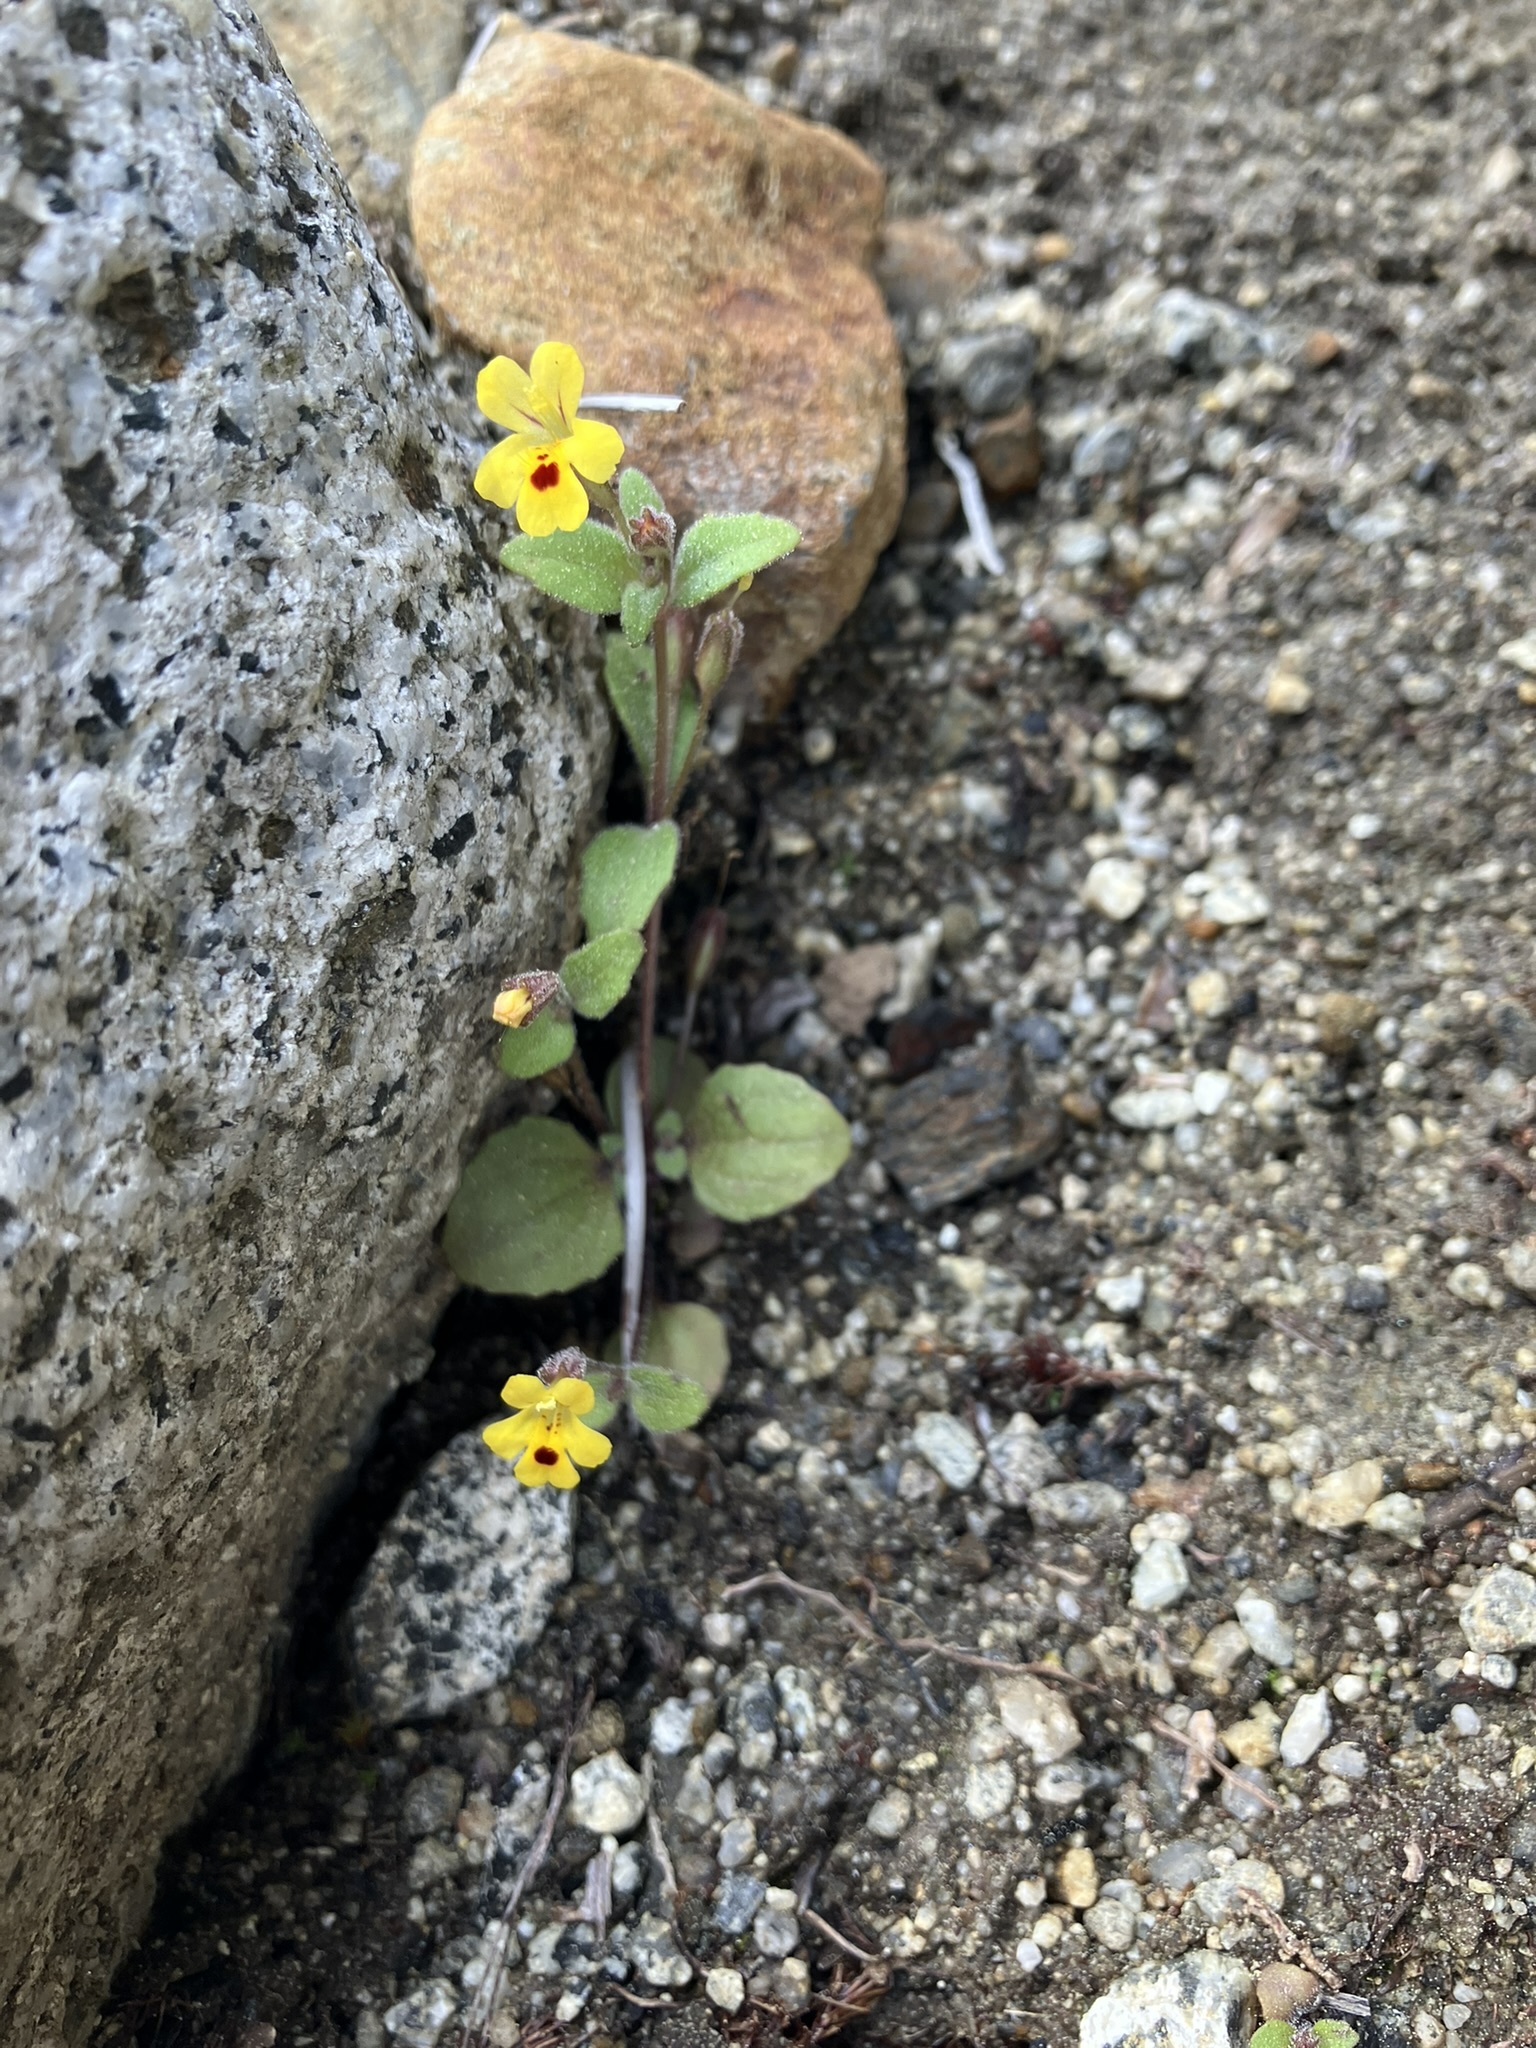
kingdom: Plantae
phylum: Tracheophyta
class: Magnoliopsida
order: Lamiales
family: Phrymaceae
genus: Erythranthe
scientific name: Erythranthe alsinoides
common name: Chickweed monkeyflower
